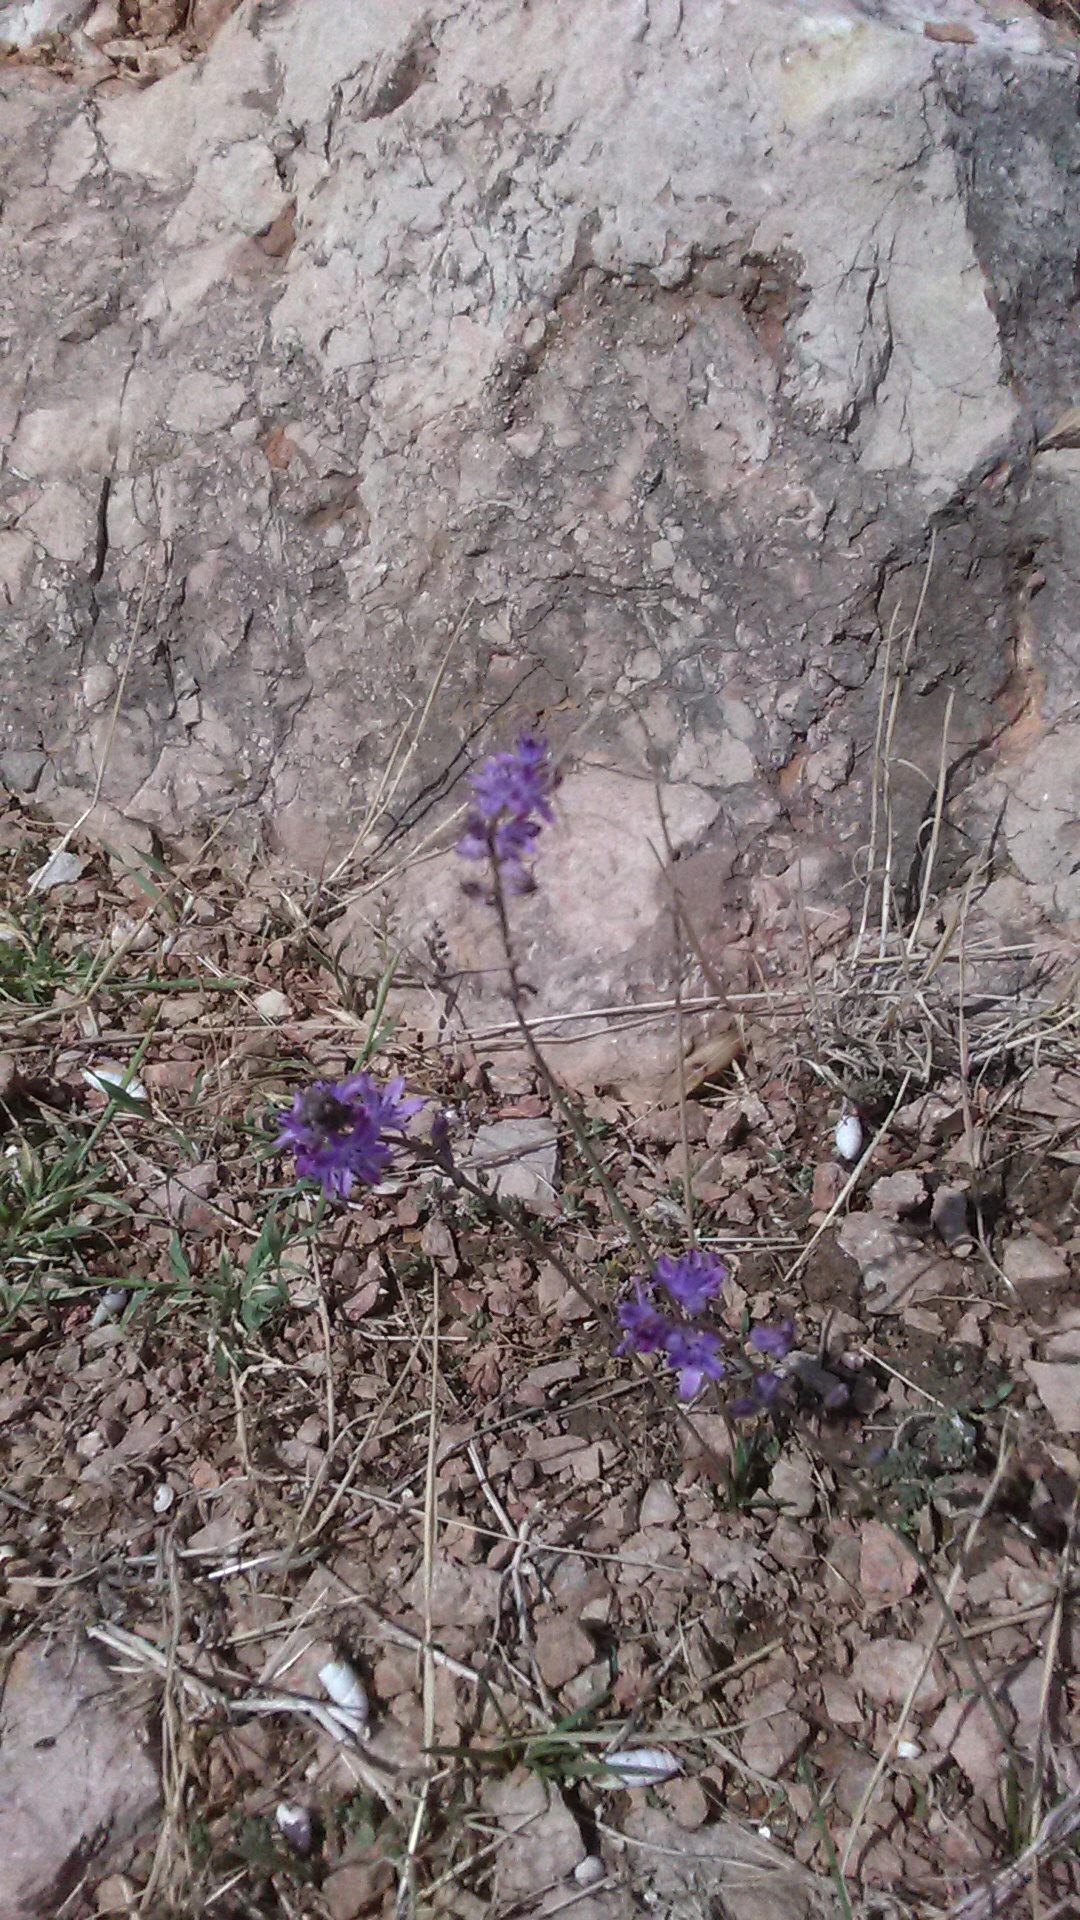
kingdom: Plantae
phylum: Tracheophyta
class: Liliopsida
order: Asparagales
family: Asparagaceae
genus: Prospero
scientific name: Prospero autumnale
